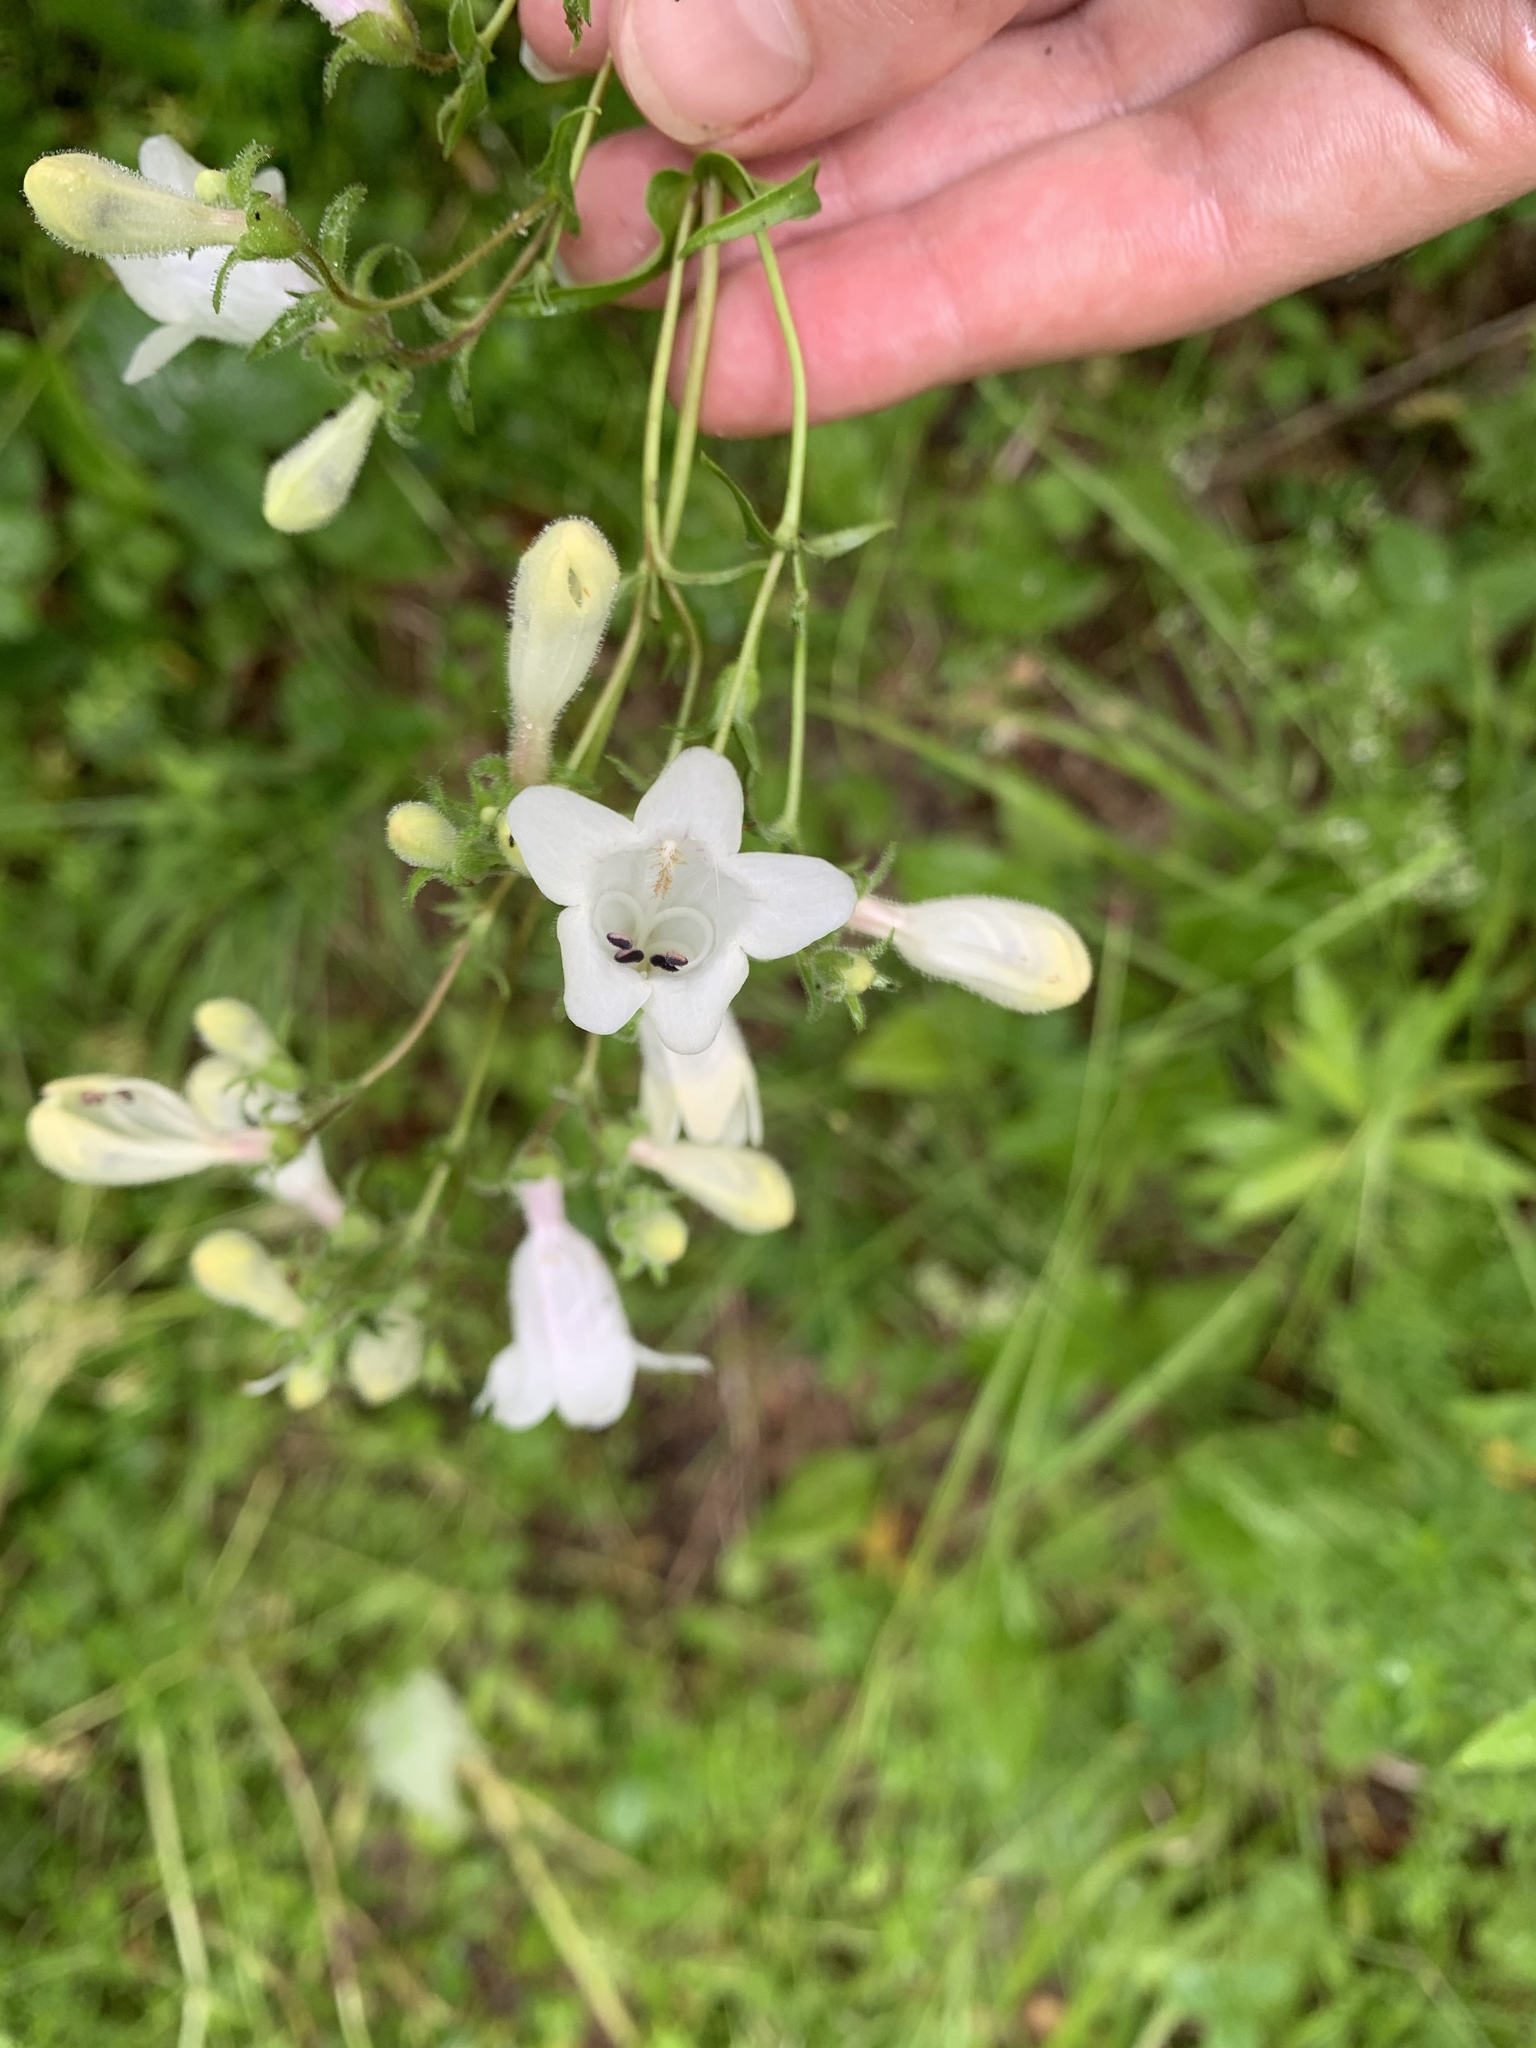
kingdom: Plantae
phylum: Tracheophyta
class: Magnoliopsida
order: Lamiales
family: Plantaginaceae
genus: Penstemon
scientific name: Penstemon digitalis
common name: Foxglove beardtongue
